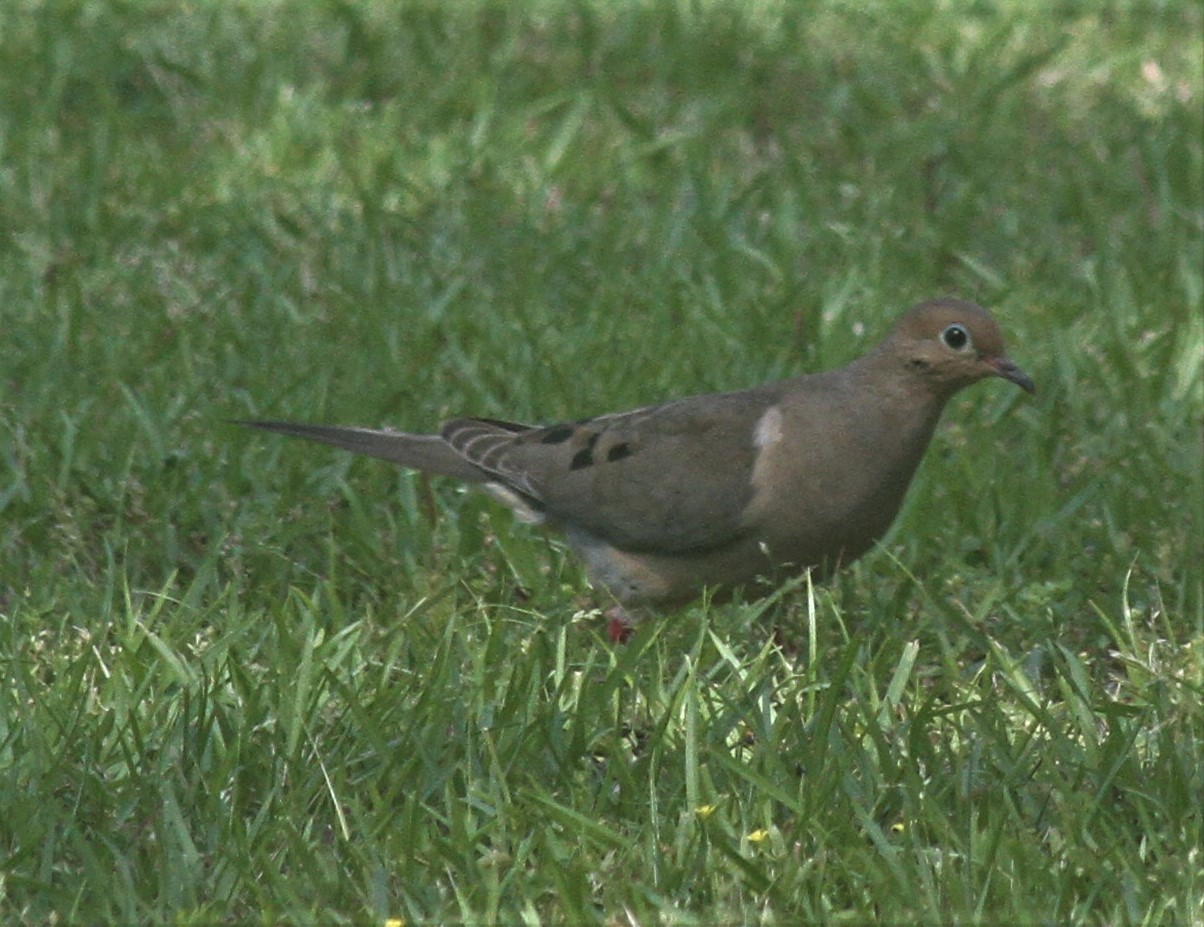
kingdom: Animalia
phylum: Chordata
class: Aves
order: Columbiformes
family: Columbidae
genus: Zenaida
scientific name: Zenaida macroura
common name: Mourning dove
